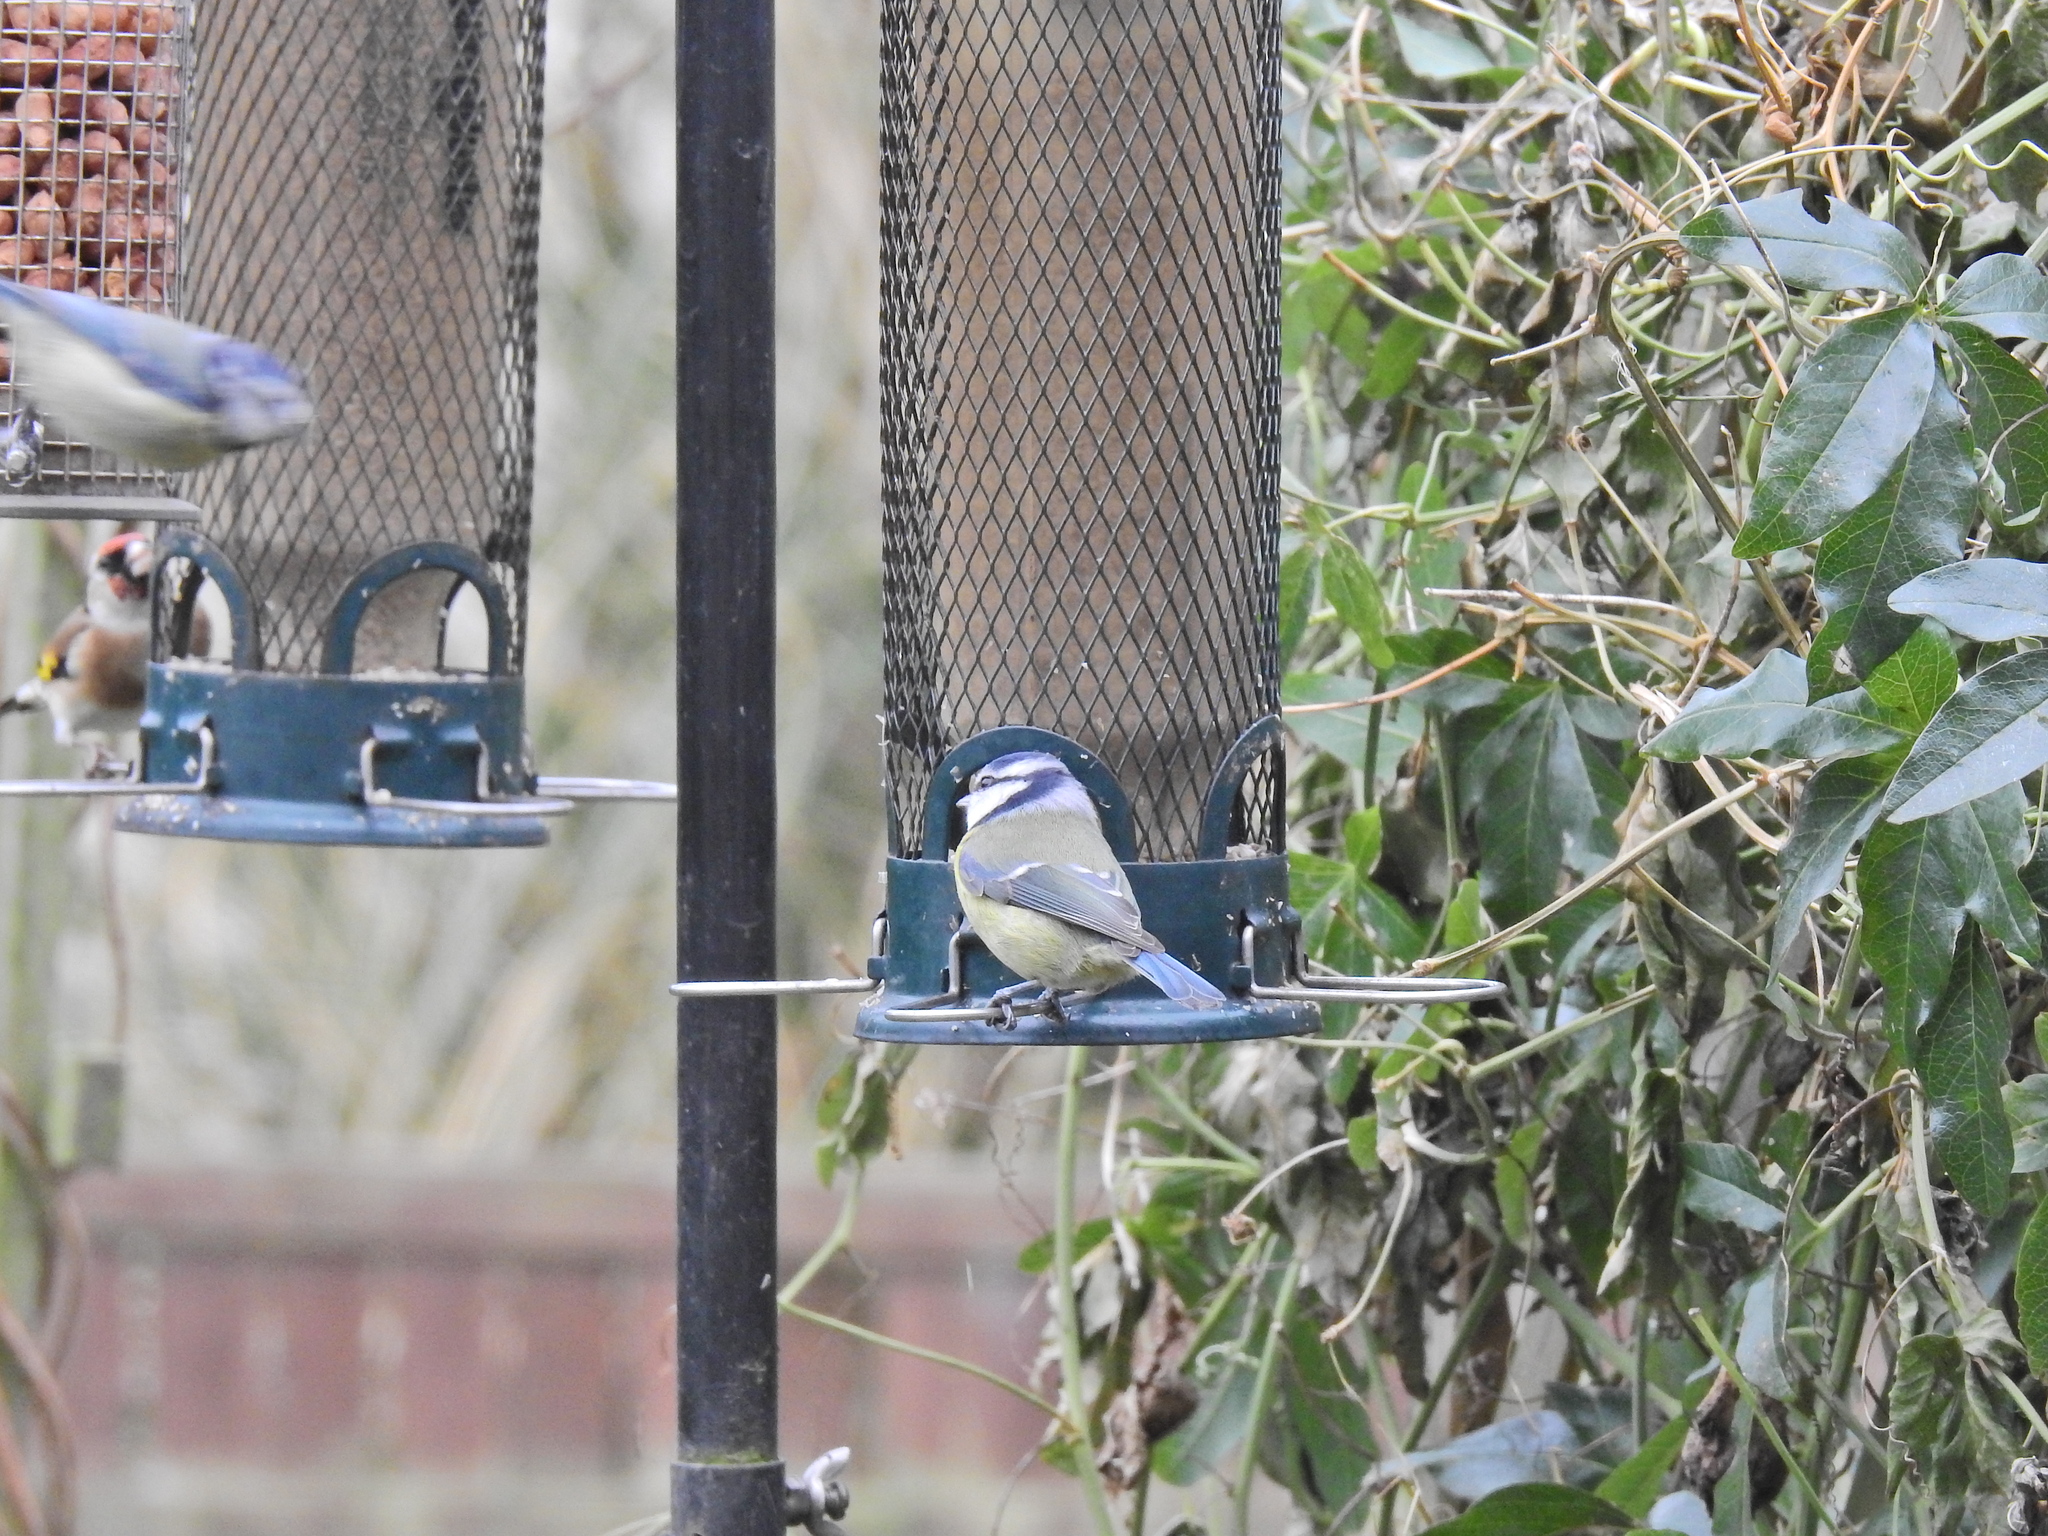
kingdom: Animalia
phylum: Chordata
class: Aves
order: Passeriformes
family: Paridae
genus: Cyanistes
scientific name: Cyanistes caeruleus
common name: Eurasian blue tit
